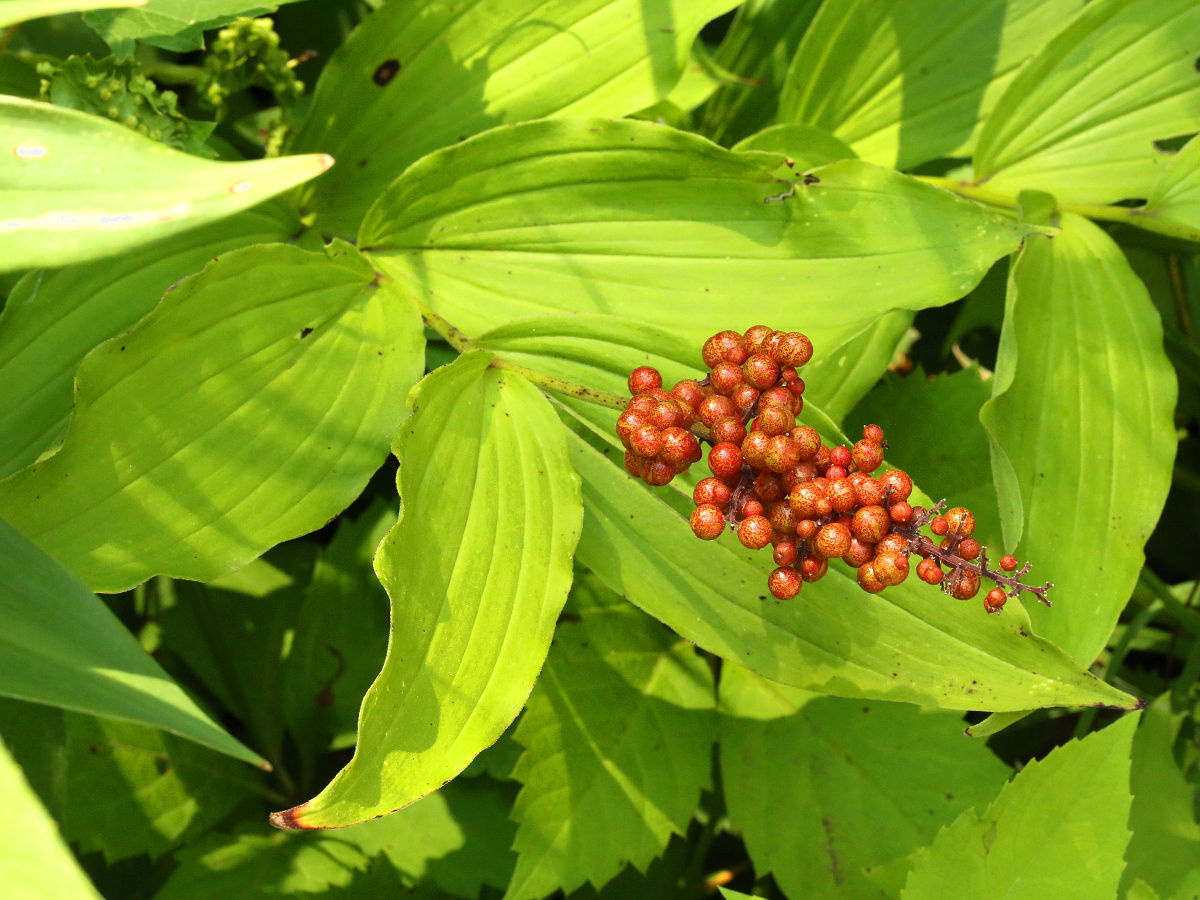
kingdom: Plantae
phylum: Tracheophyta
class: Liliopsida
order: Asparagales
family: Asparagaceae
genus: Maianthemum
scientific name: Maianthemum racemosum
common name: False spikenard
